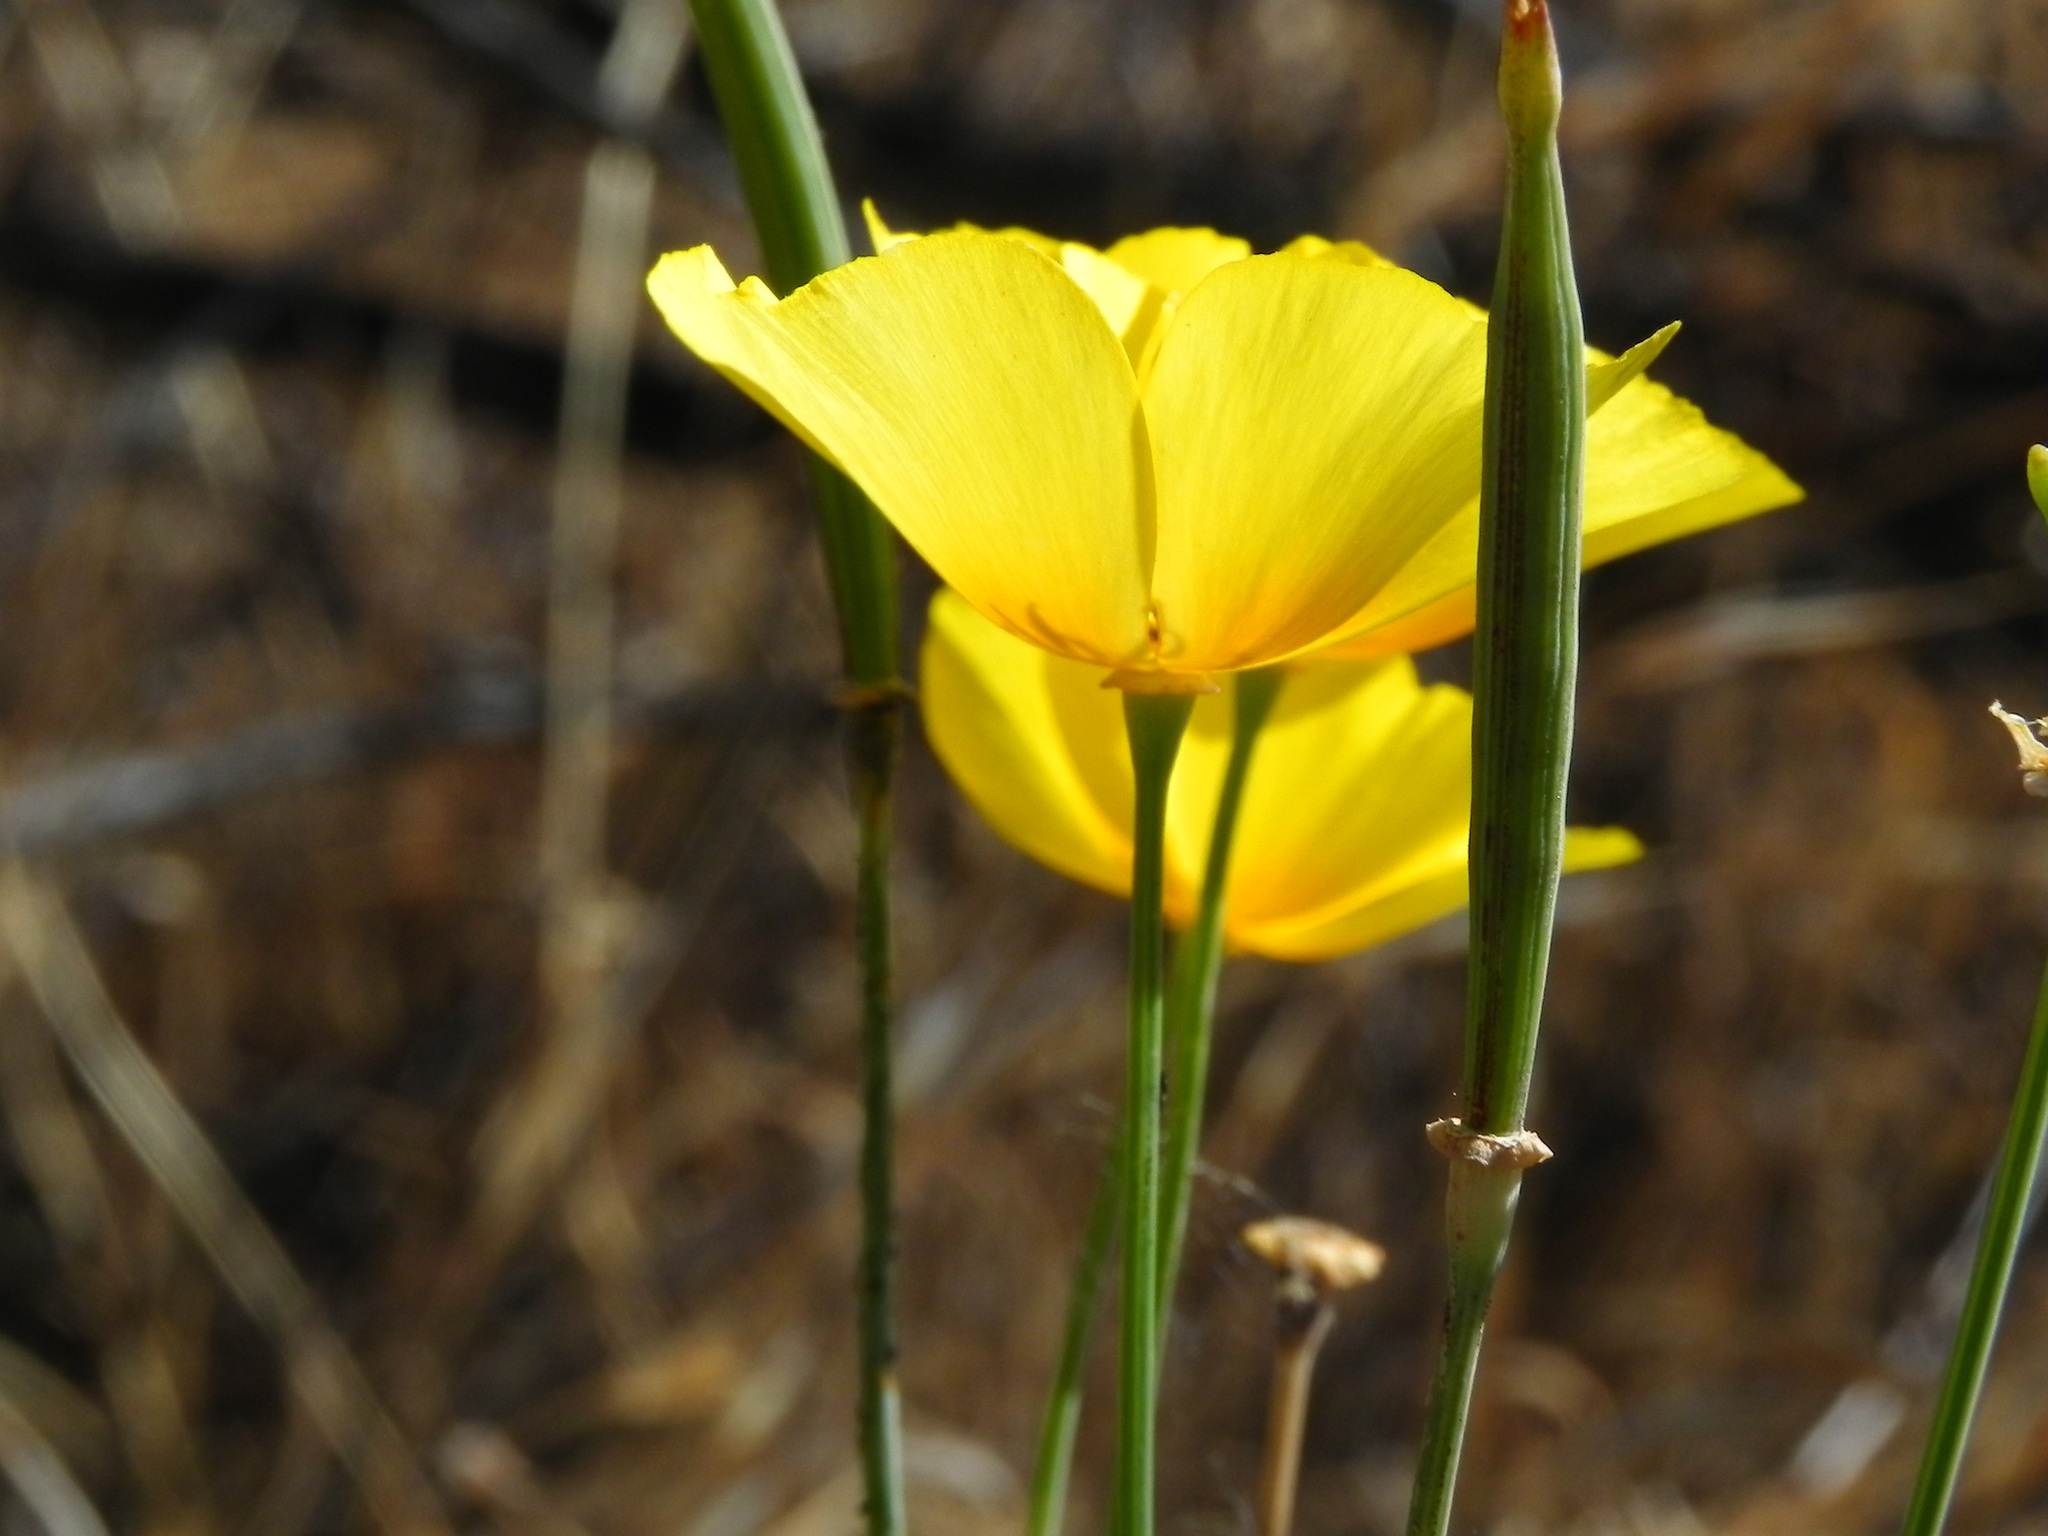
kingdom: Plantae
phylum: Tracheophyta
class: Magnoliopsida
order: Ranunculales
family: Papaveraceae
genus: Eschscholzia
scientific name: Eschscholzia californica
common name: California poppy
